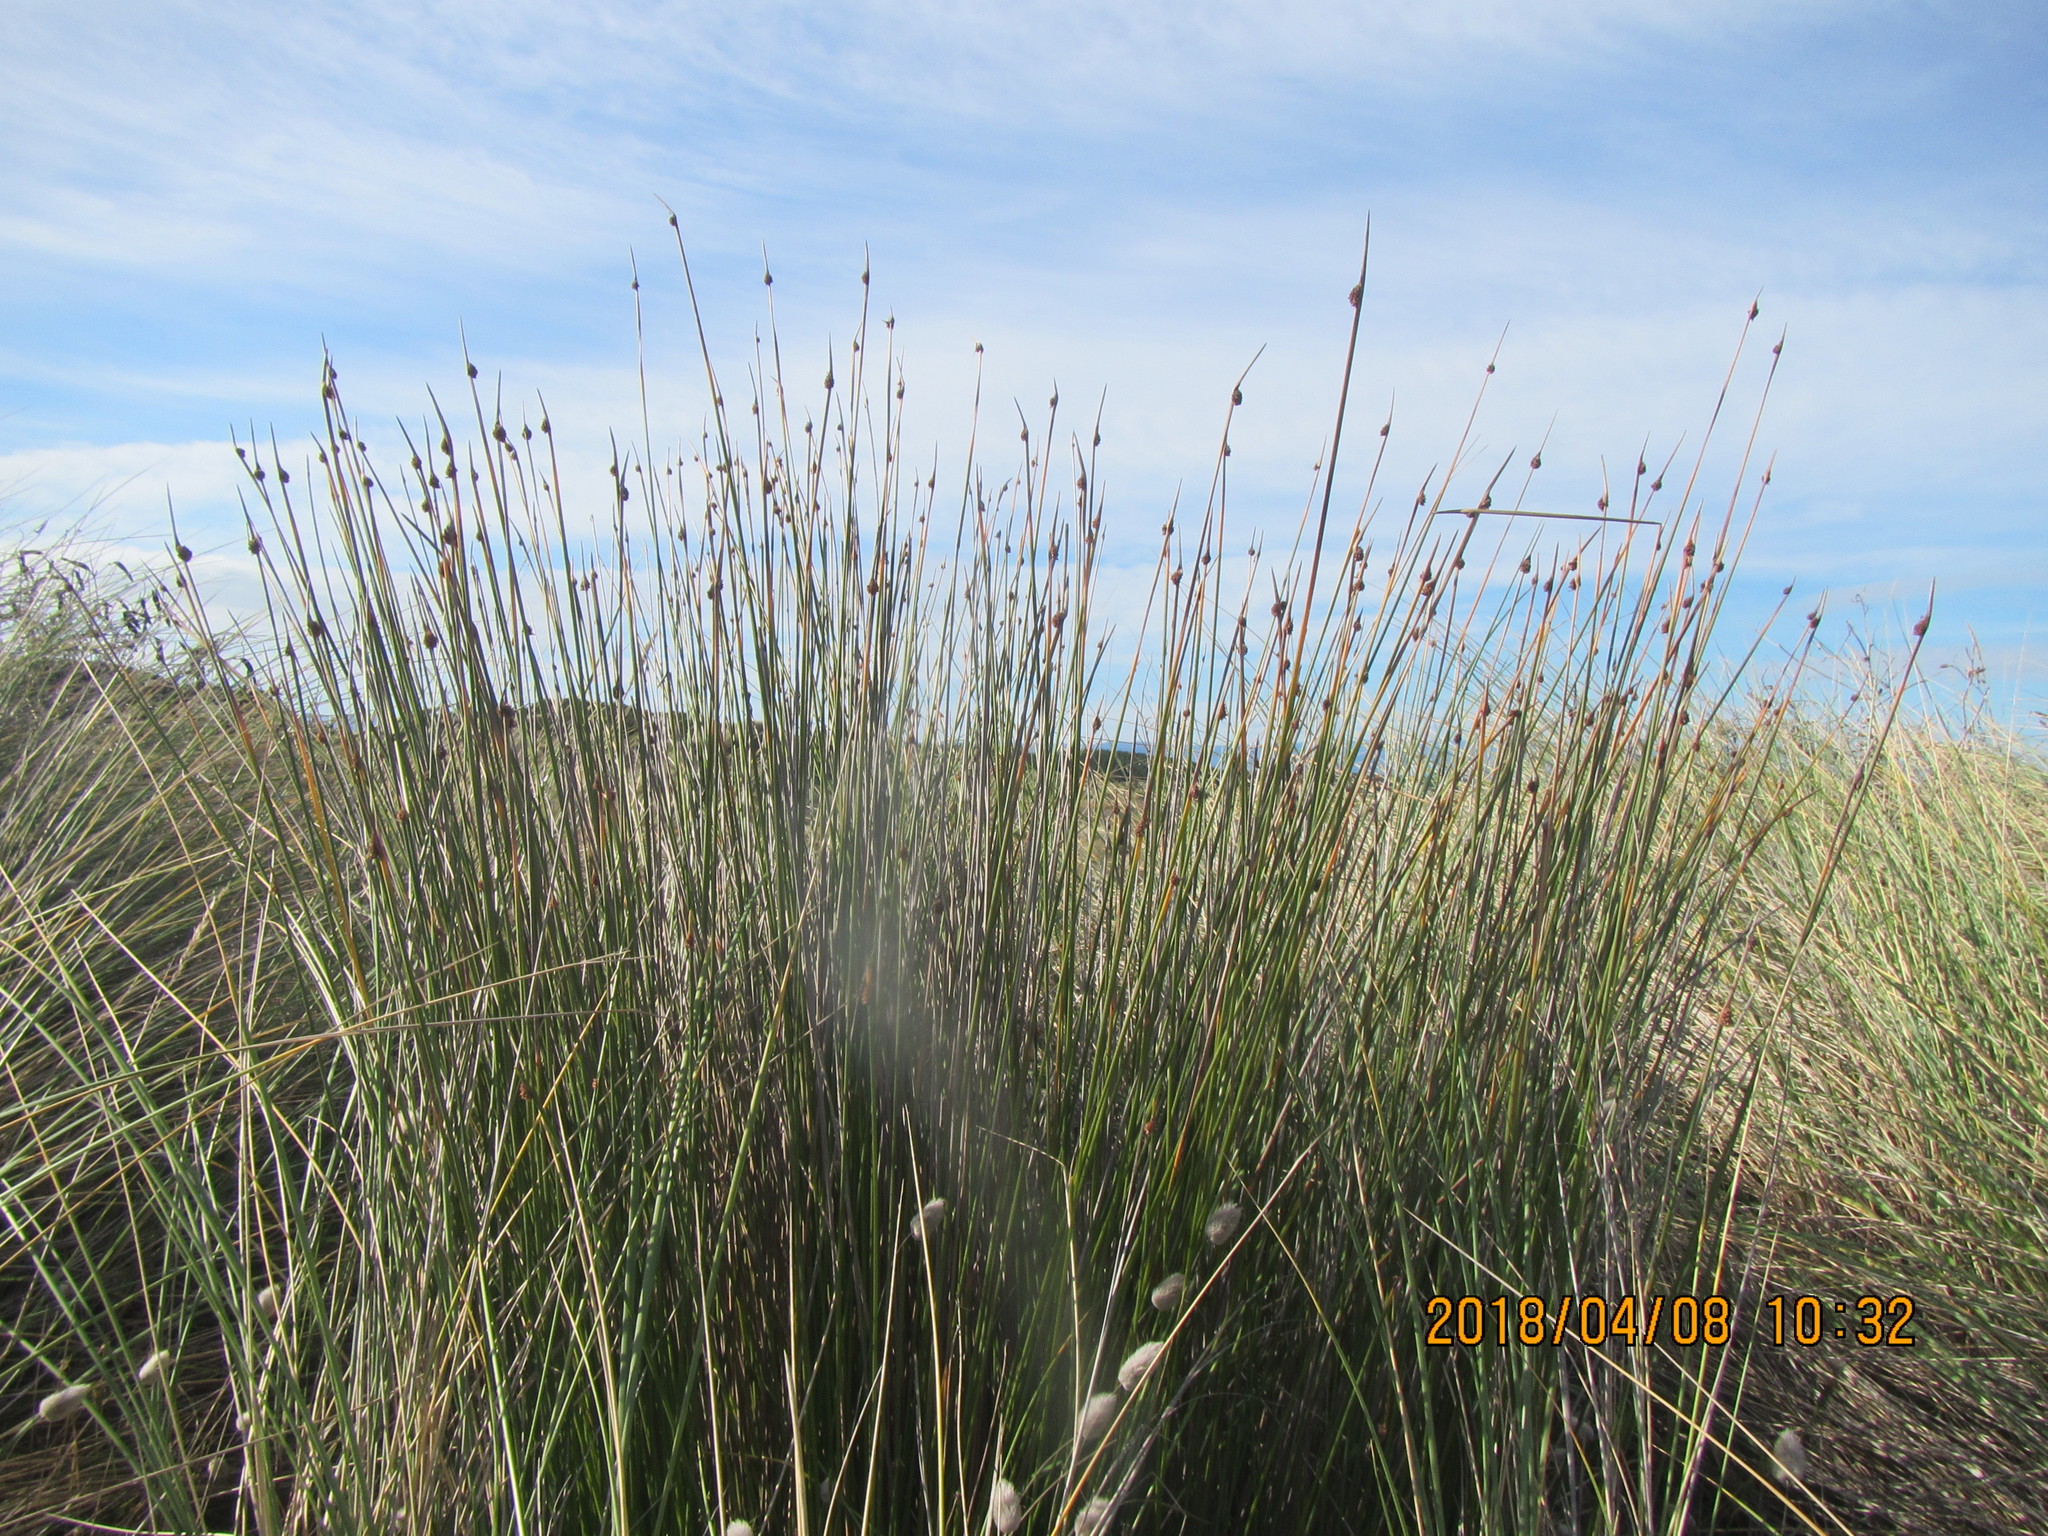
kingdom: Plantae
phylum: Tracheophyta
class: Liliopsida
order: Poales
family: Cyperaceae
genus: Ficinia
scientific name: Ficinia nodosa
